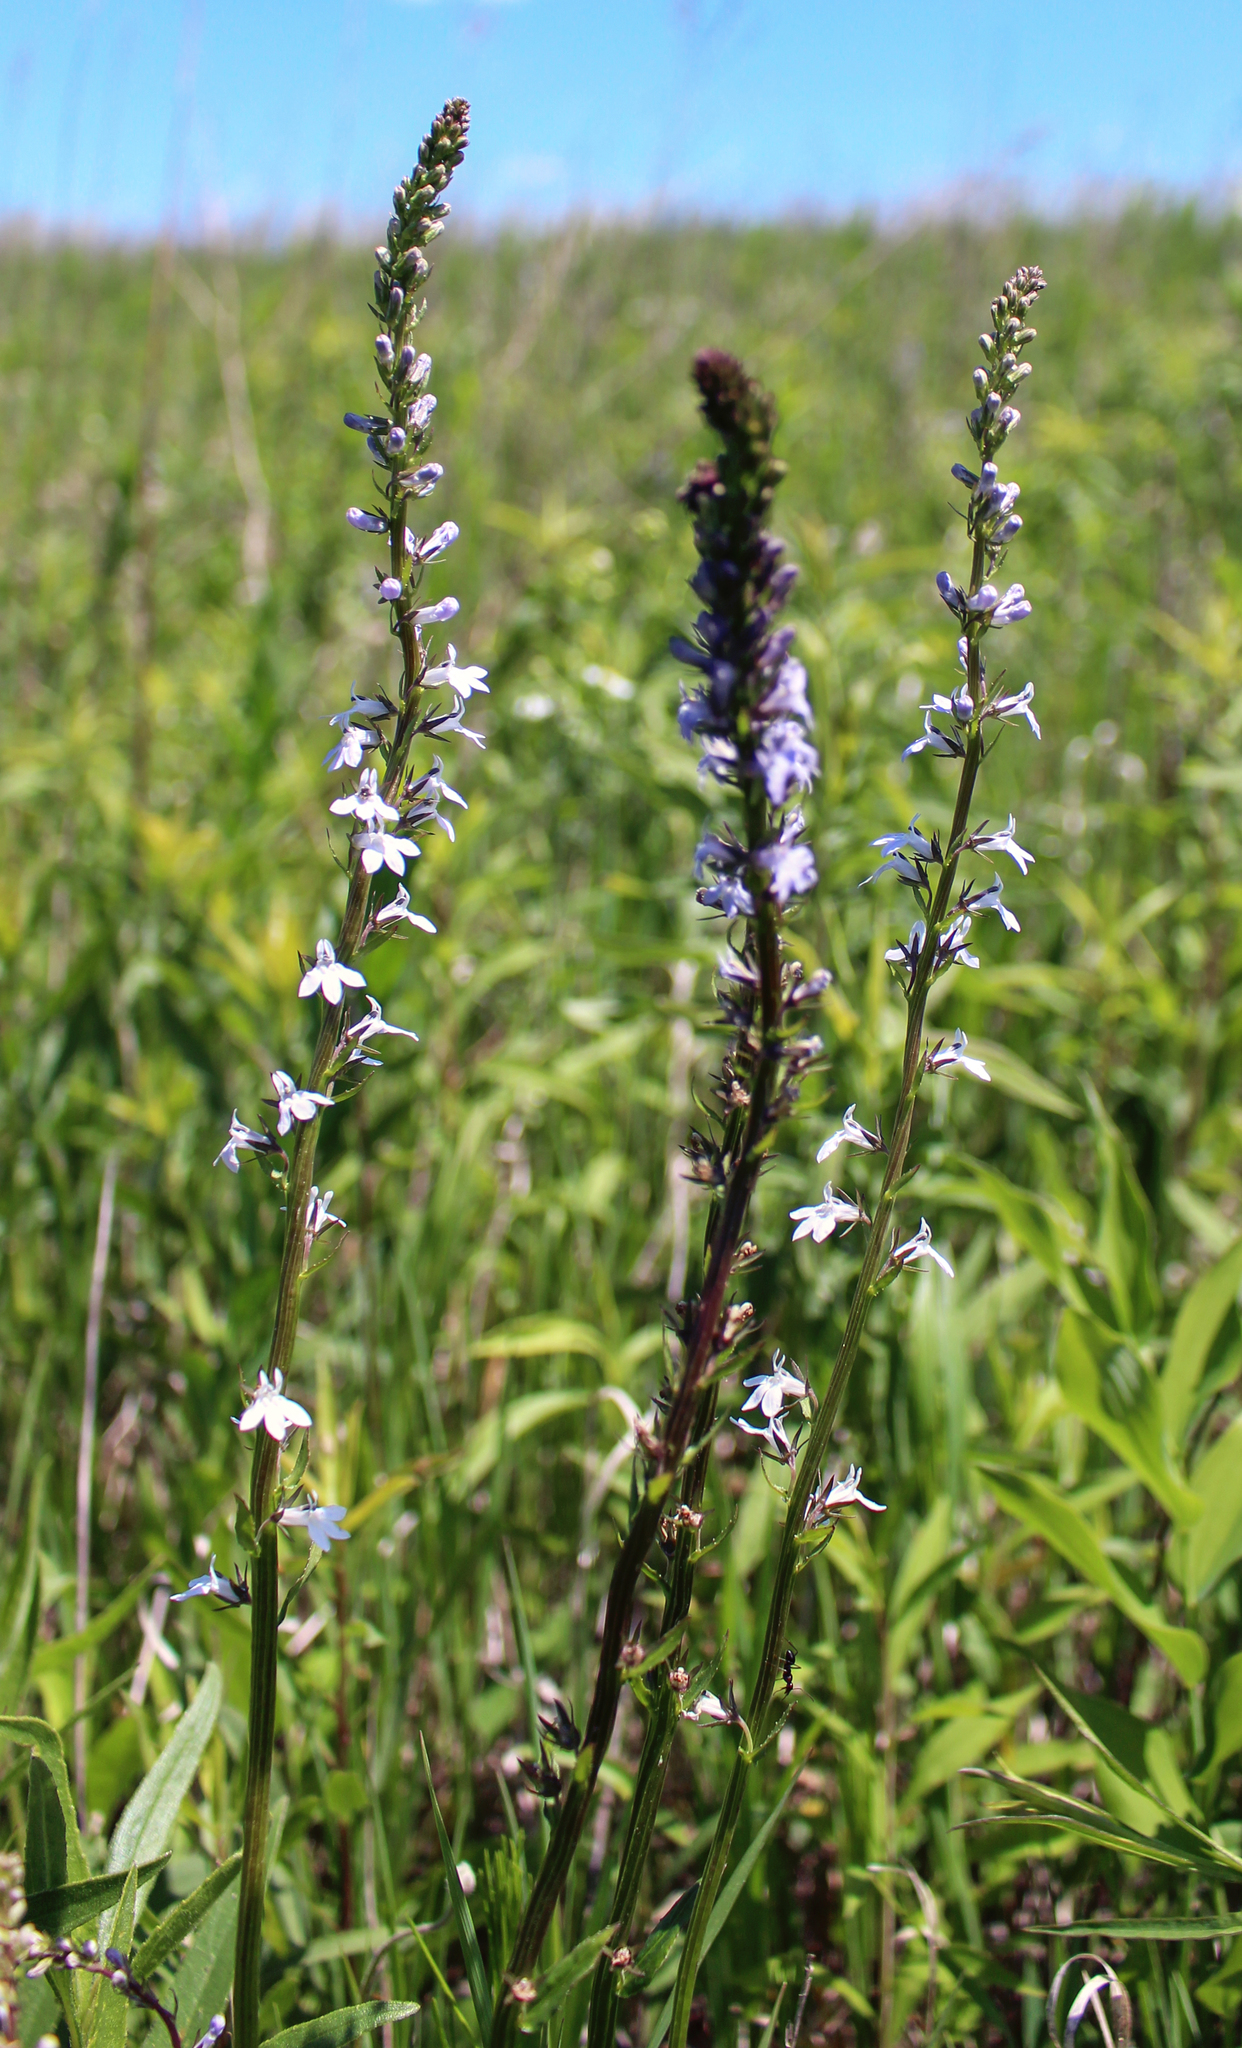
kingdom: Plantae
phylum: Tracheophyta
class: Magnoliopsida
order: Asterales
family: Campanulaceae
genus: Lobelia
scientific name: Lobelia spicata
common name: Pale-spike lobelia
